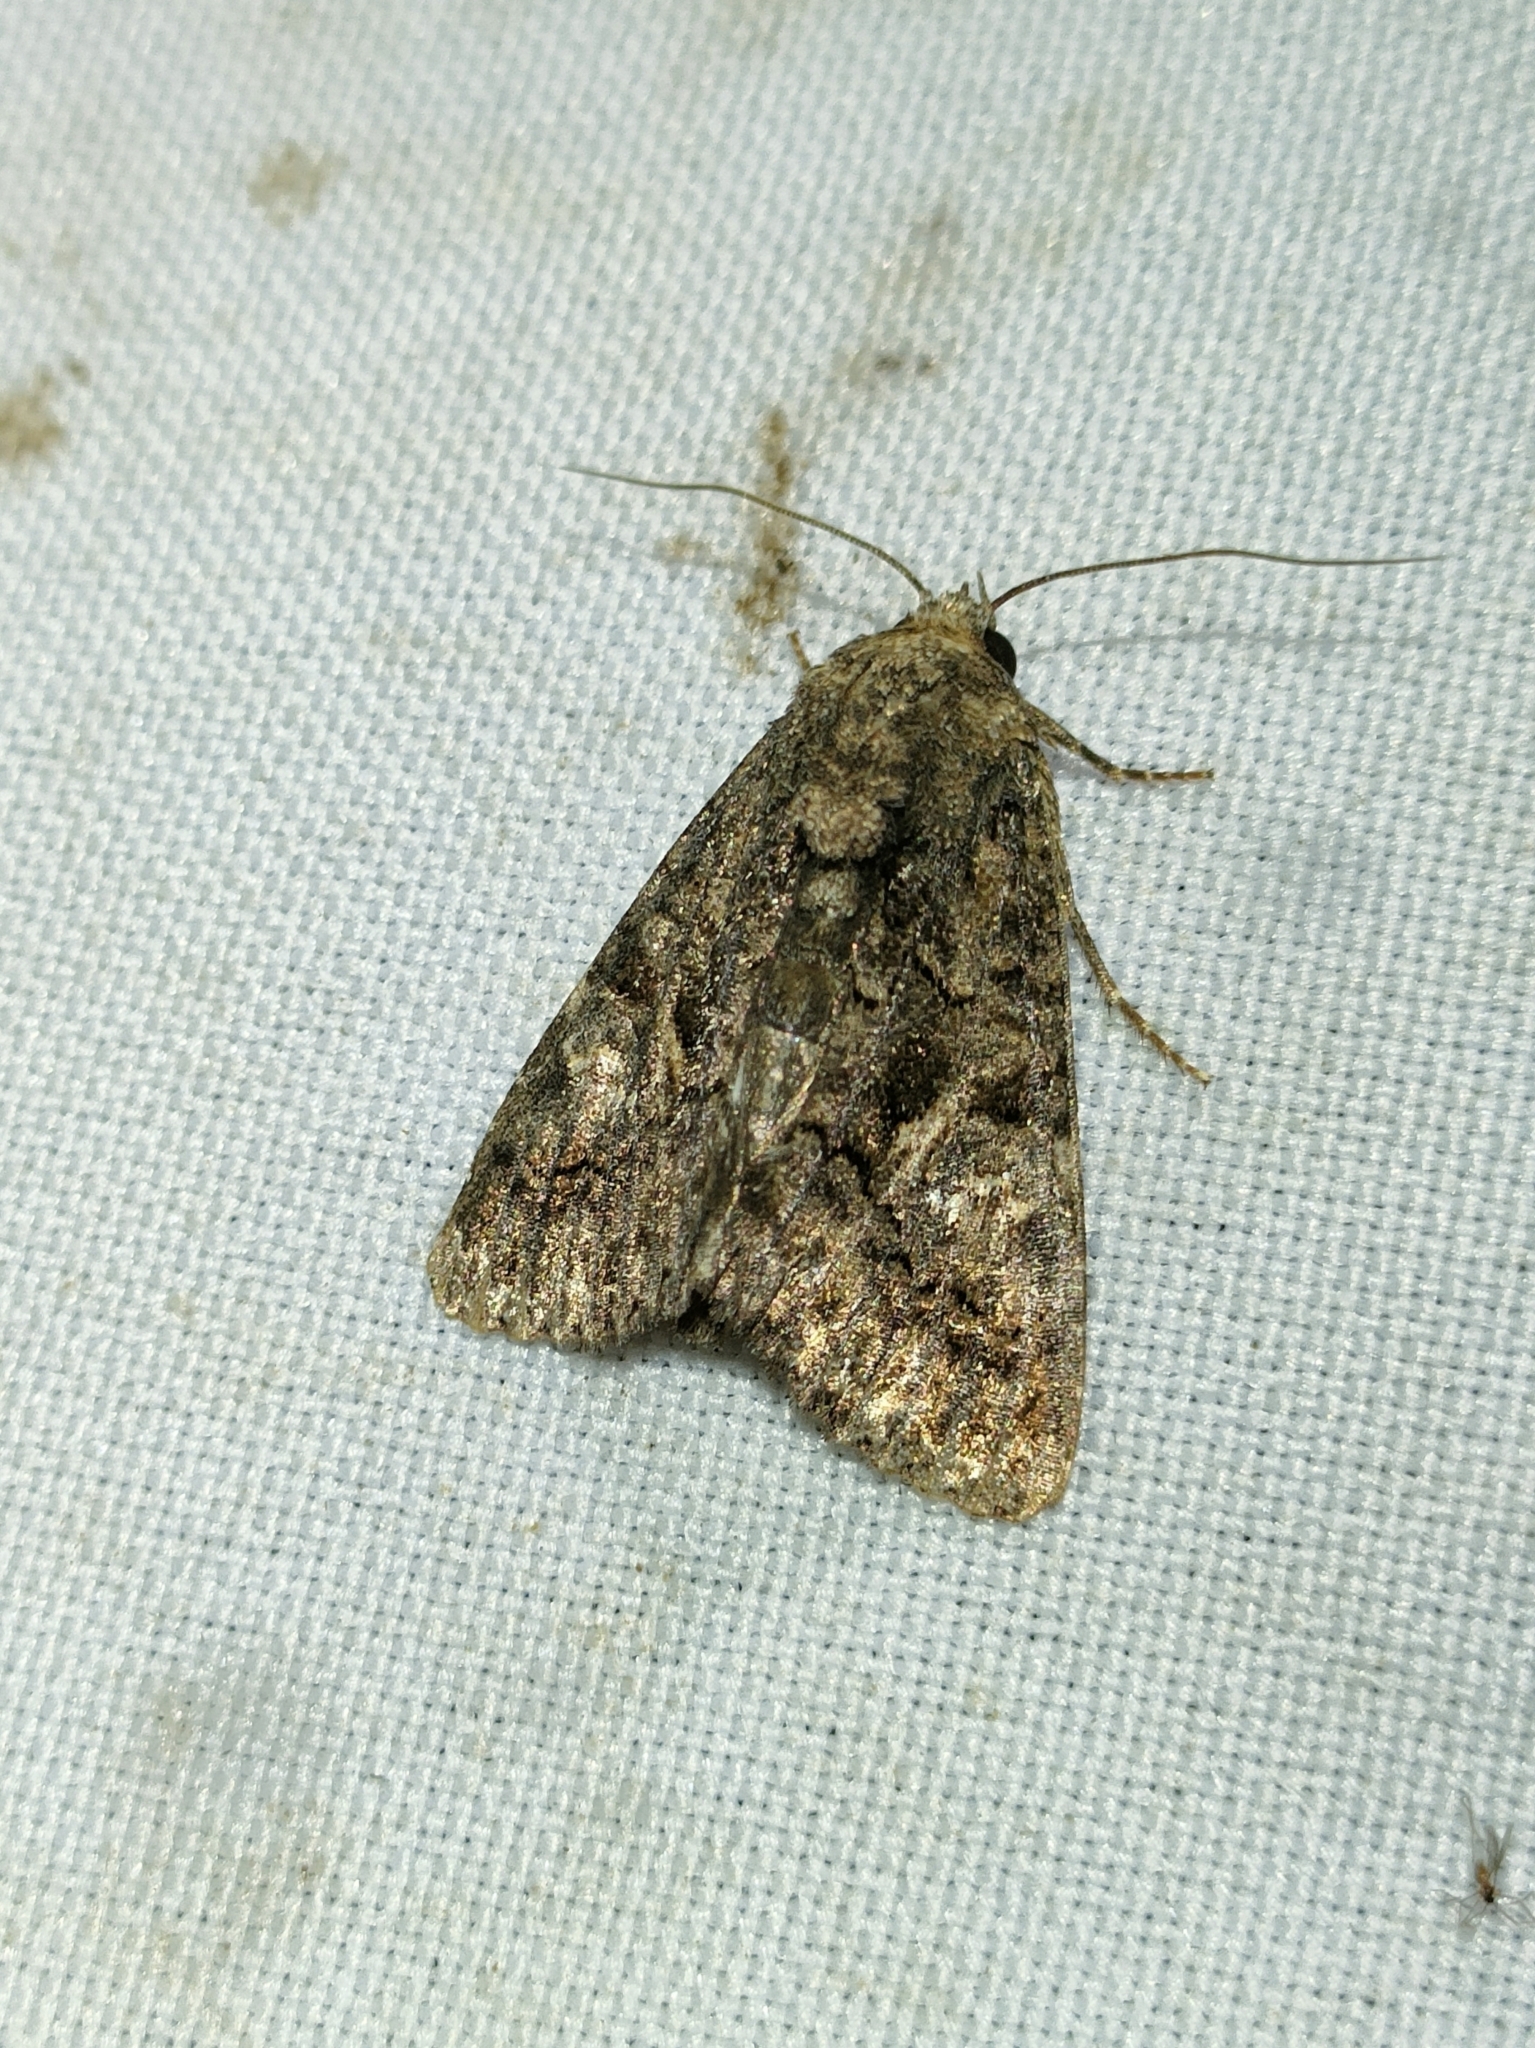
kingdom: Animalia
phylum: Arthropoda
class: Insecta
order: Lepidoptera
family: Noctuidae
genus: Aedia
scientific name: Aedia leucomelas
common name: Sorcerer
